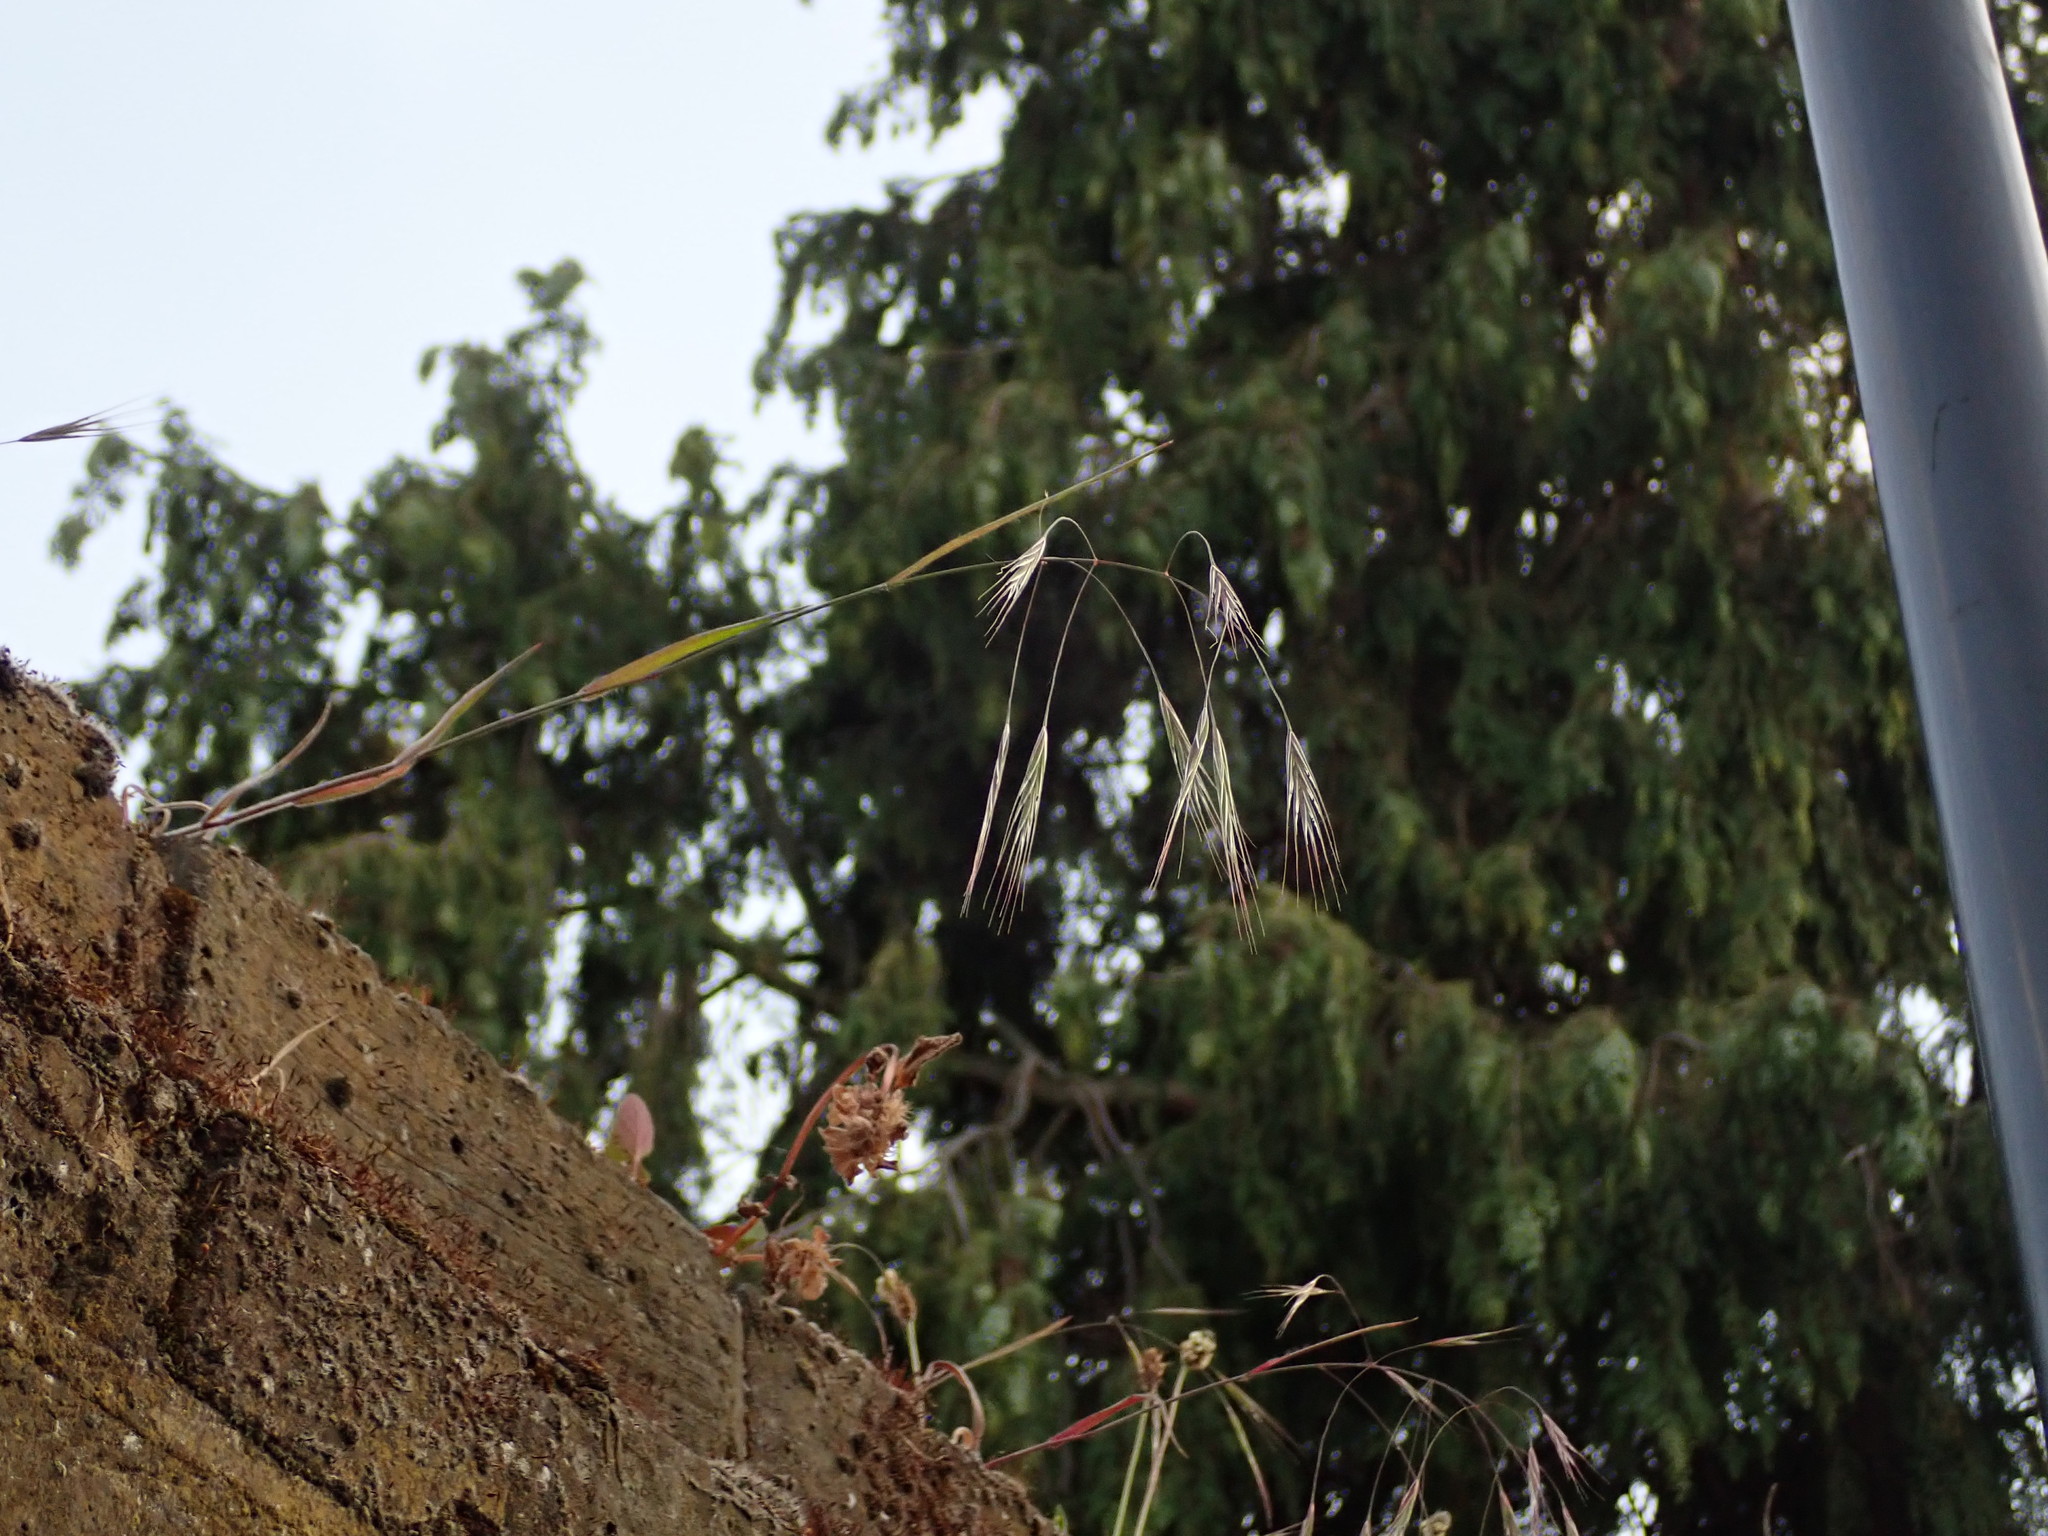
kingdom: Plantae
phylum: Tracheophyta
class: Liliopsida
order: Poales
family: Poaceae
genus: Bromus
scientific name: Bromus sterilis
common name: Poverty brome
